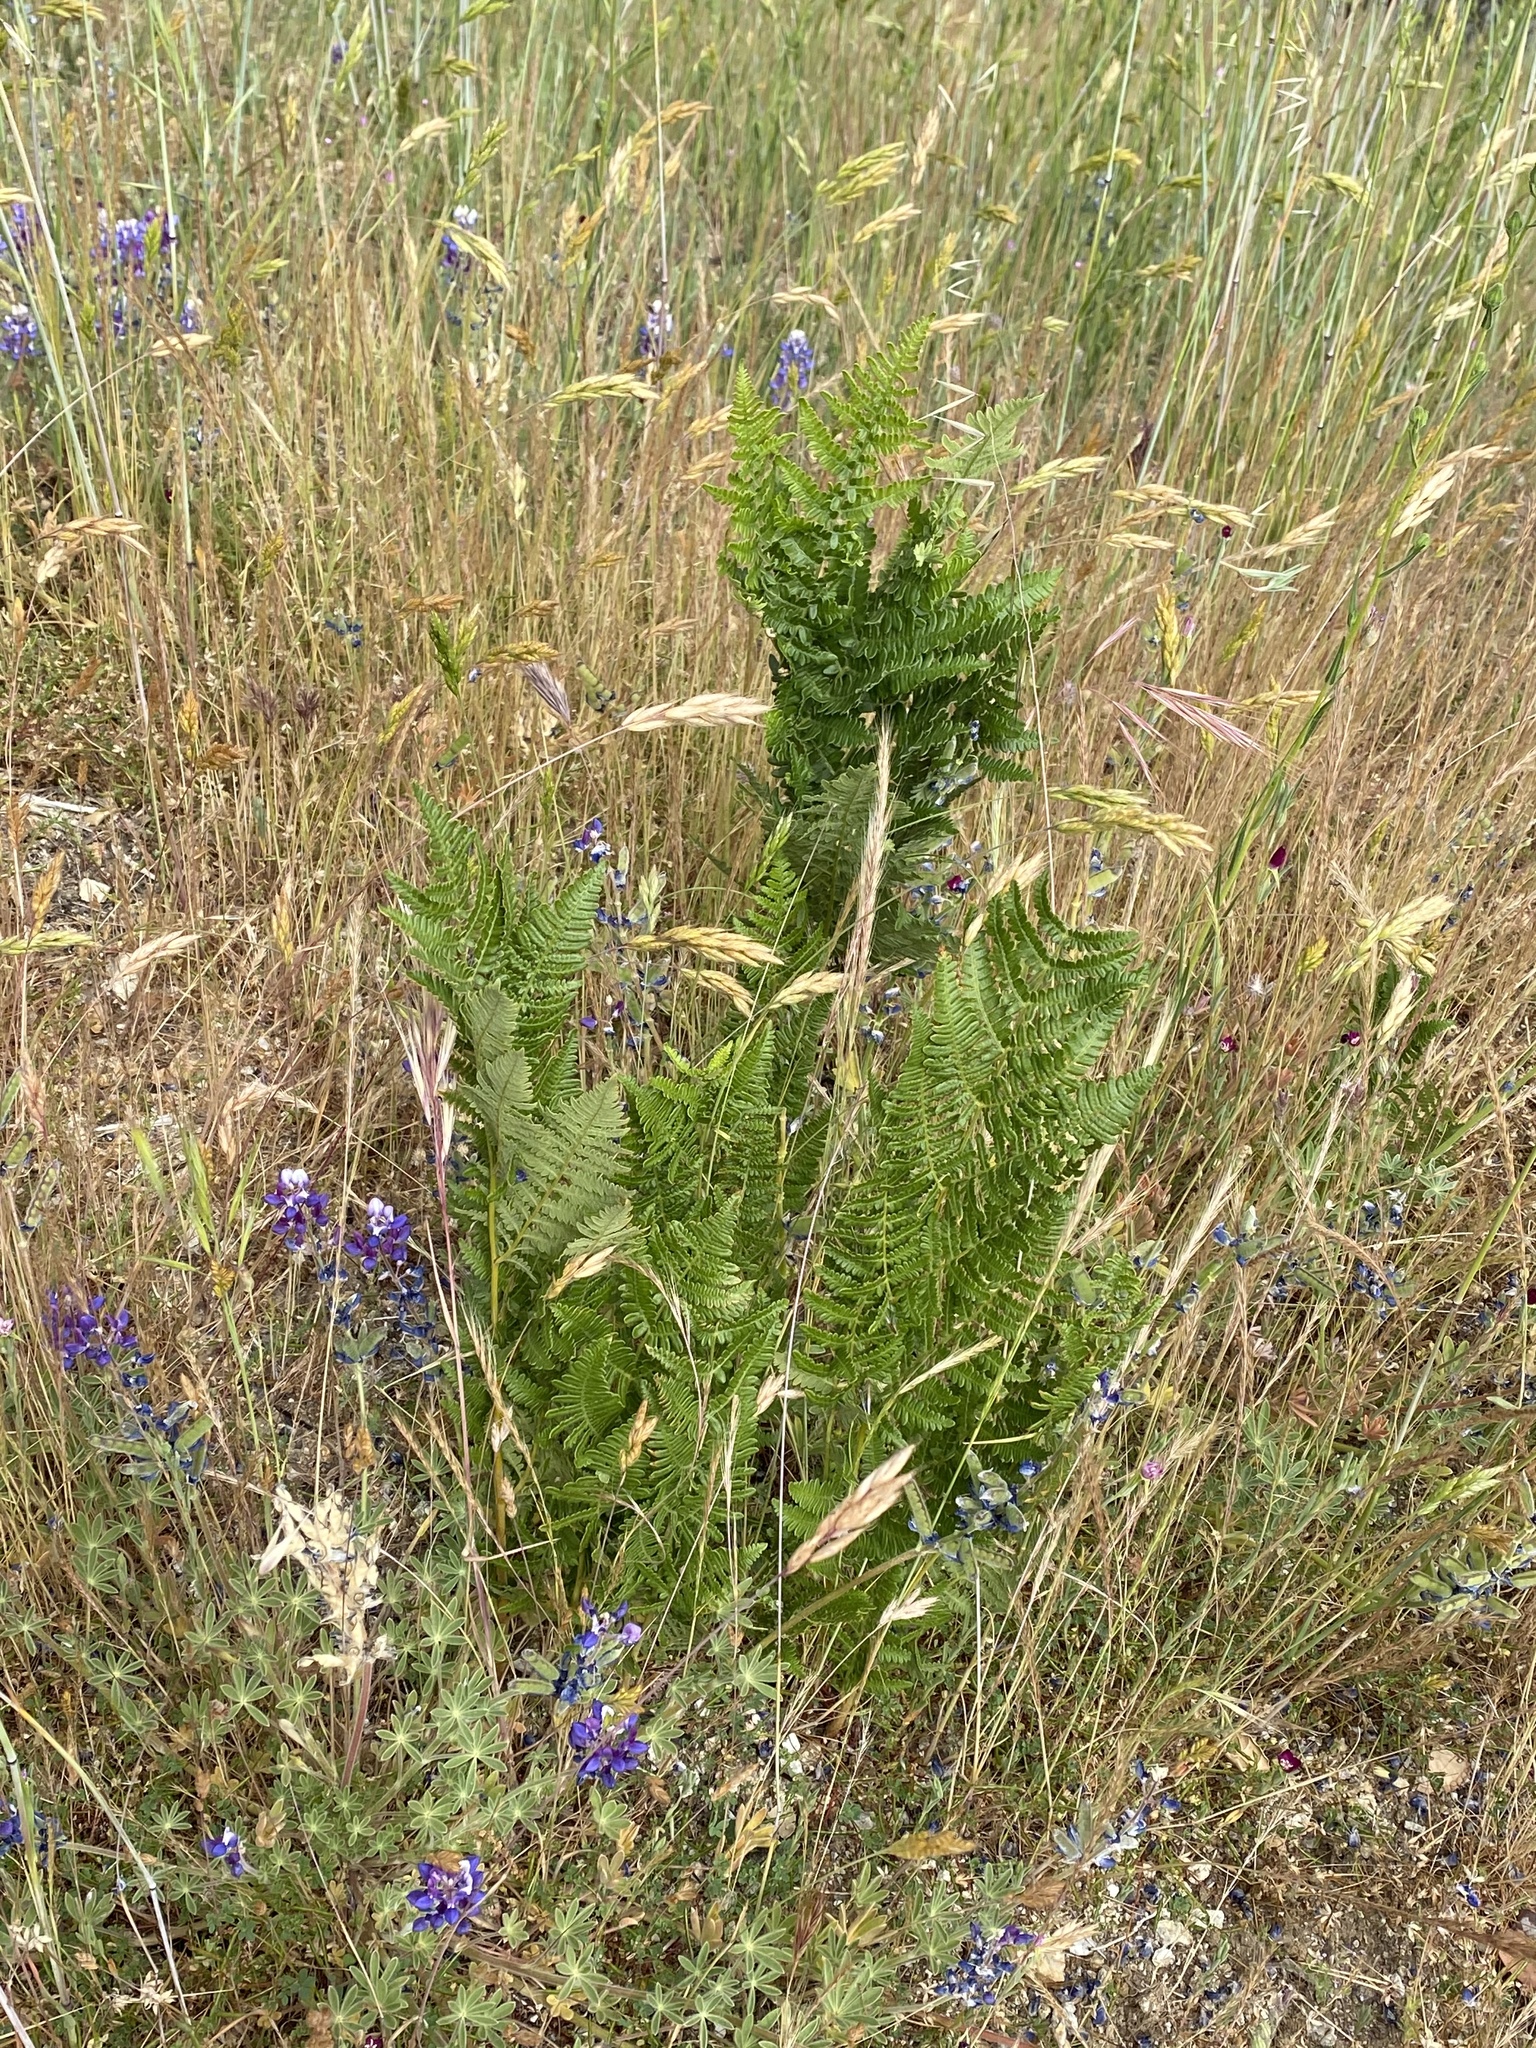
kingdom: Plantae
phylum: Tracheophyta
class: Polypodiopsida
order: Polypodiales
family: Dennstaedtiaceae
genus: Pteridium
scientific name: Pteridium aquilinum
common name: Bracken
